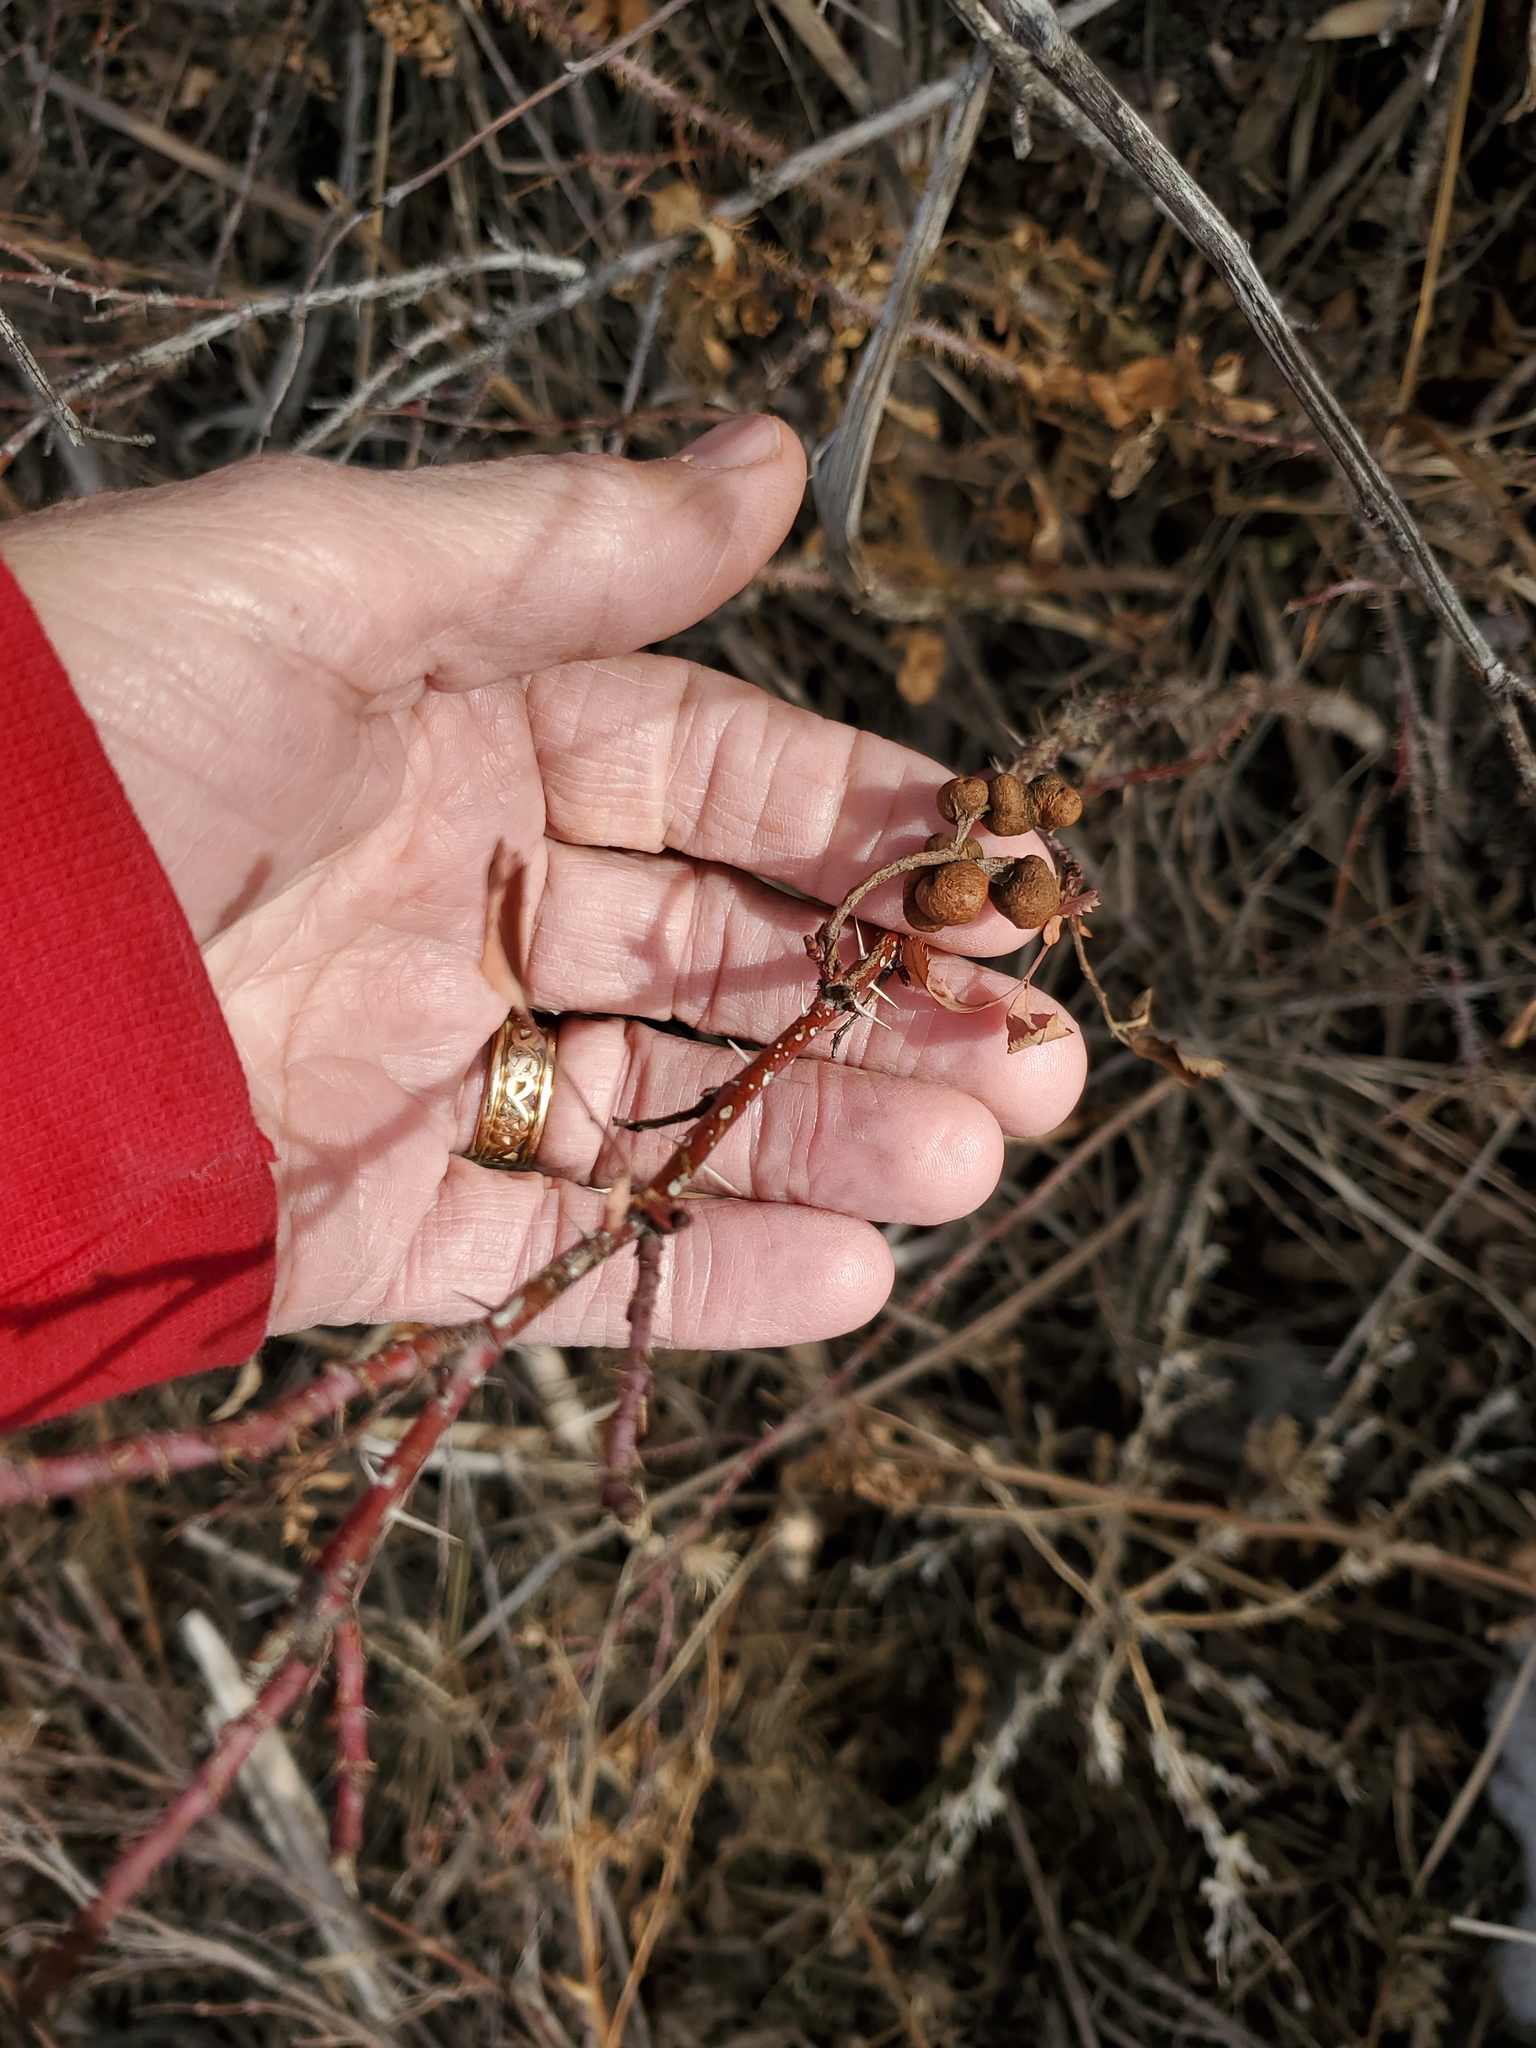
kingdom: Animalia
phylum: Arthropoda
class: Insecta
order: Hymenoptera
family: Cynipidae
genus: Diplolepis
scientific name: Diplolepis ignota
